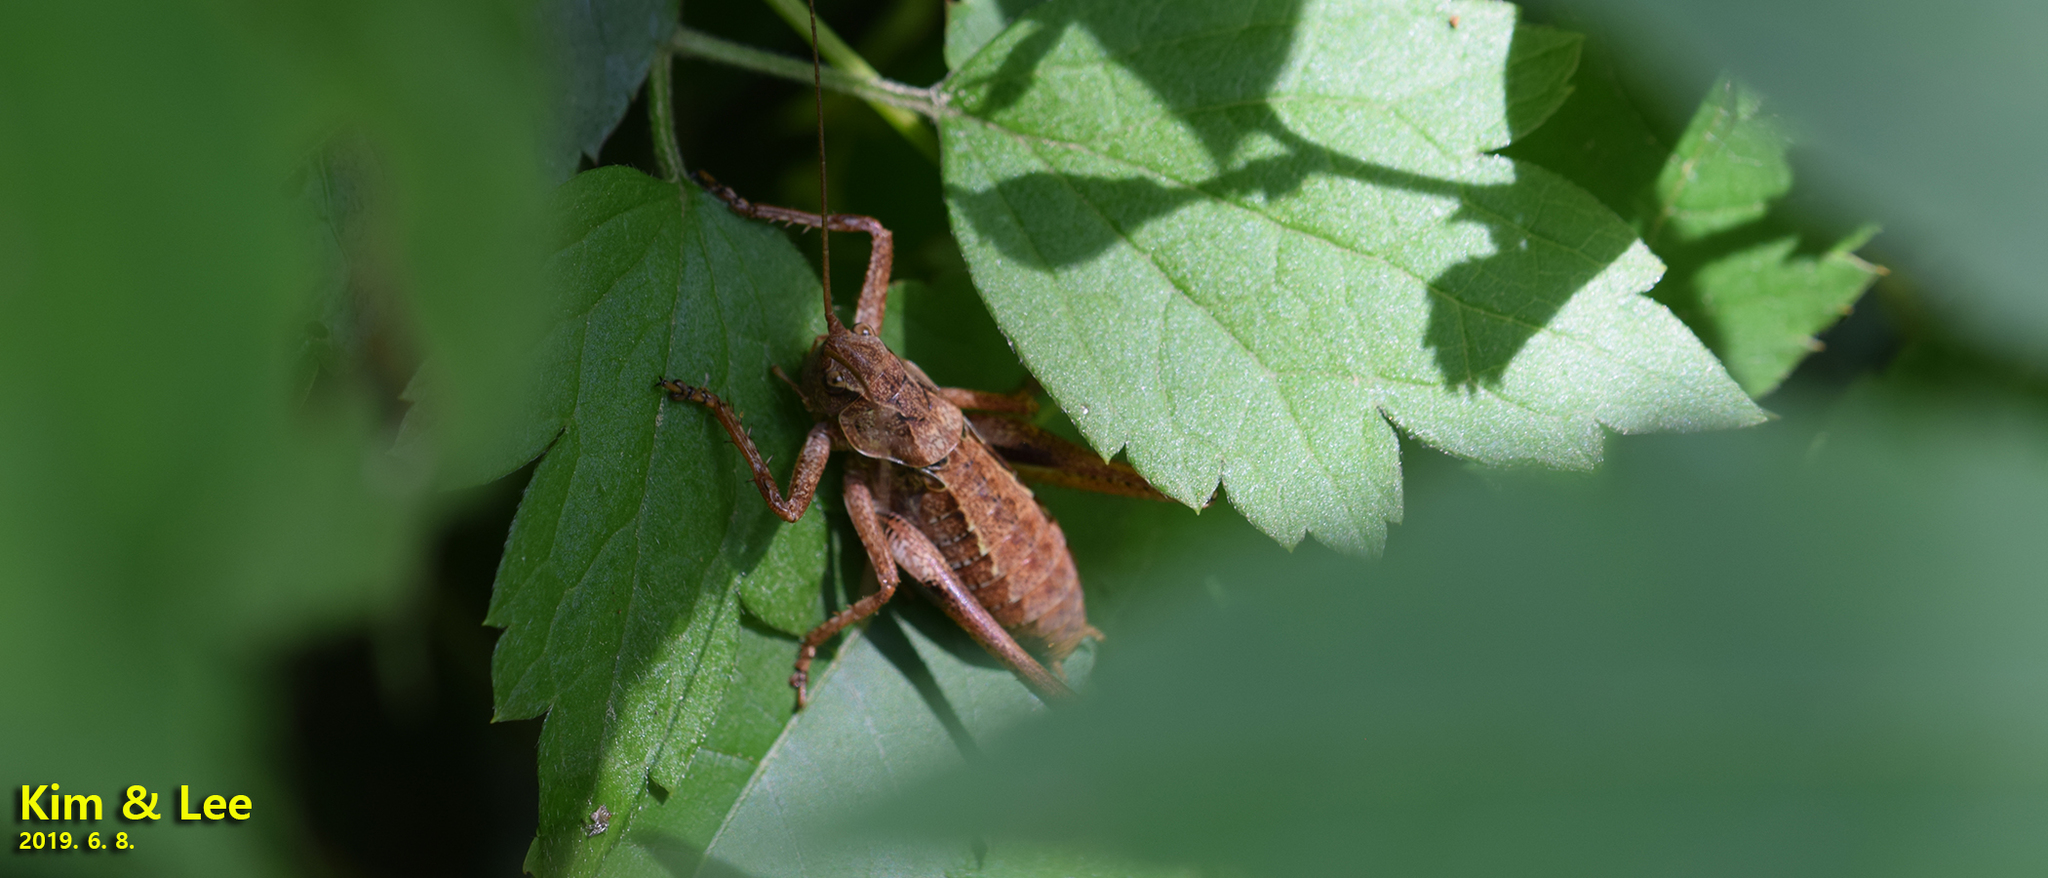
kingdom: Animalia
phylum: Arthropoda
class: Insecta
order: Orthoptera
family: Tettigoniidae
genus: Paratlanticus
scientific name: Paratlanticus ussuriensis
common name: Ussur brown katydid
